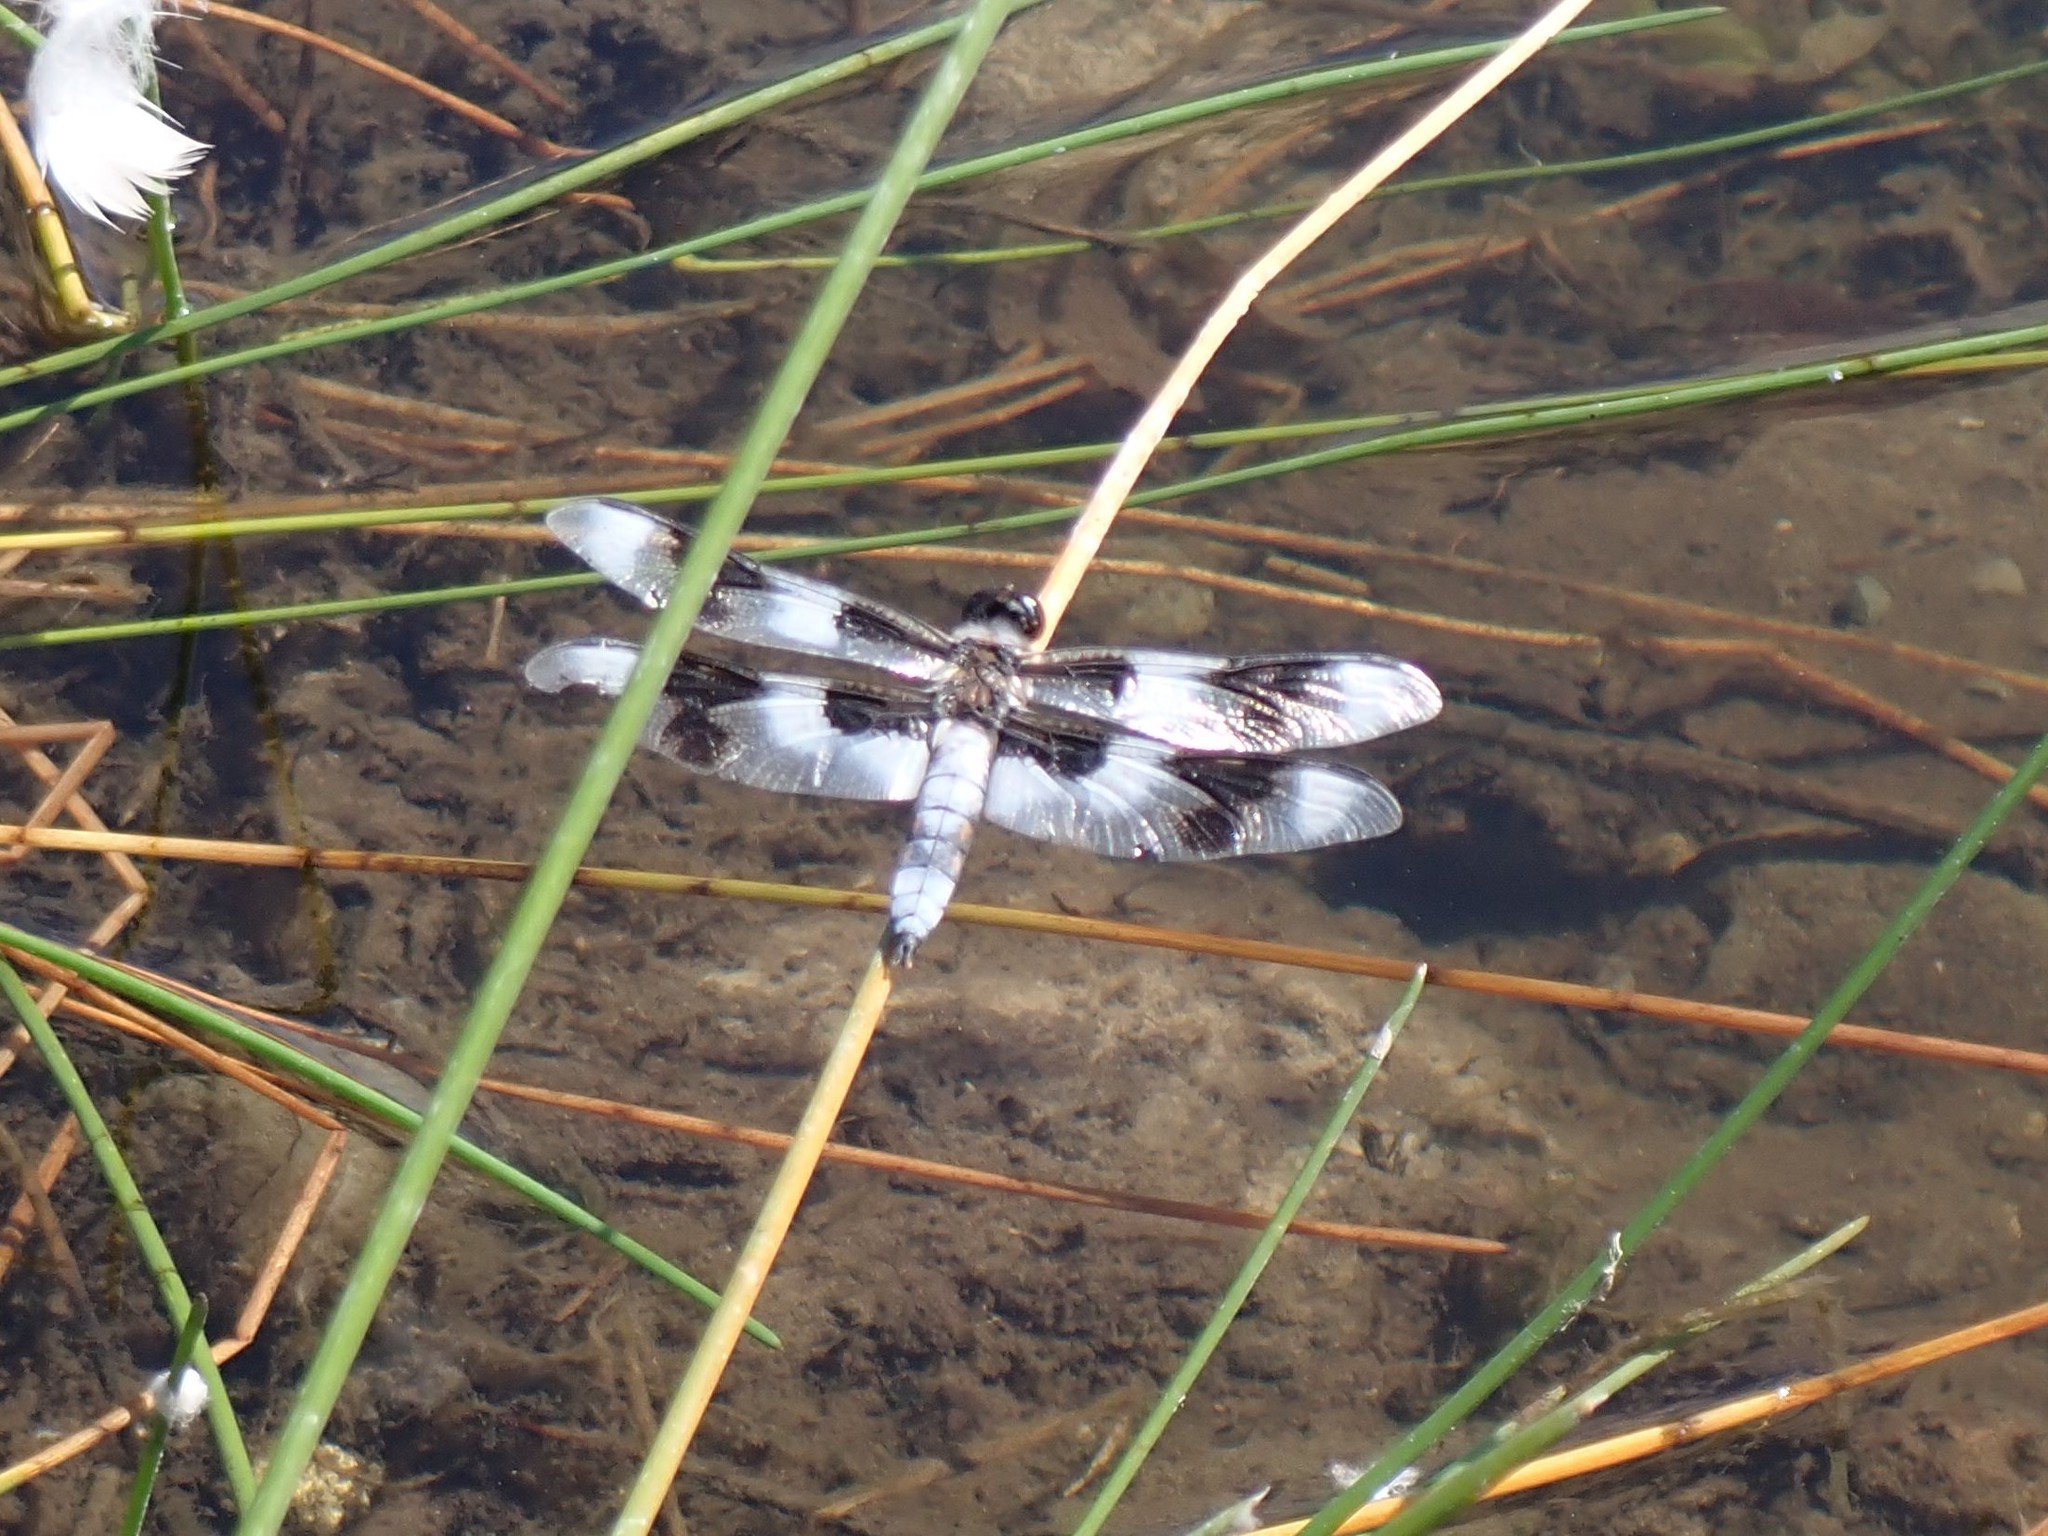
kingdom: Animalia
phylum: Arthropoda
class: Insecta
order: Odonata
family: Libellulidae
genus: Libellula
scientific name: Libellula forensis
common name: Eight-spotted skimmer
